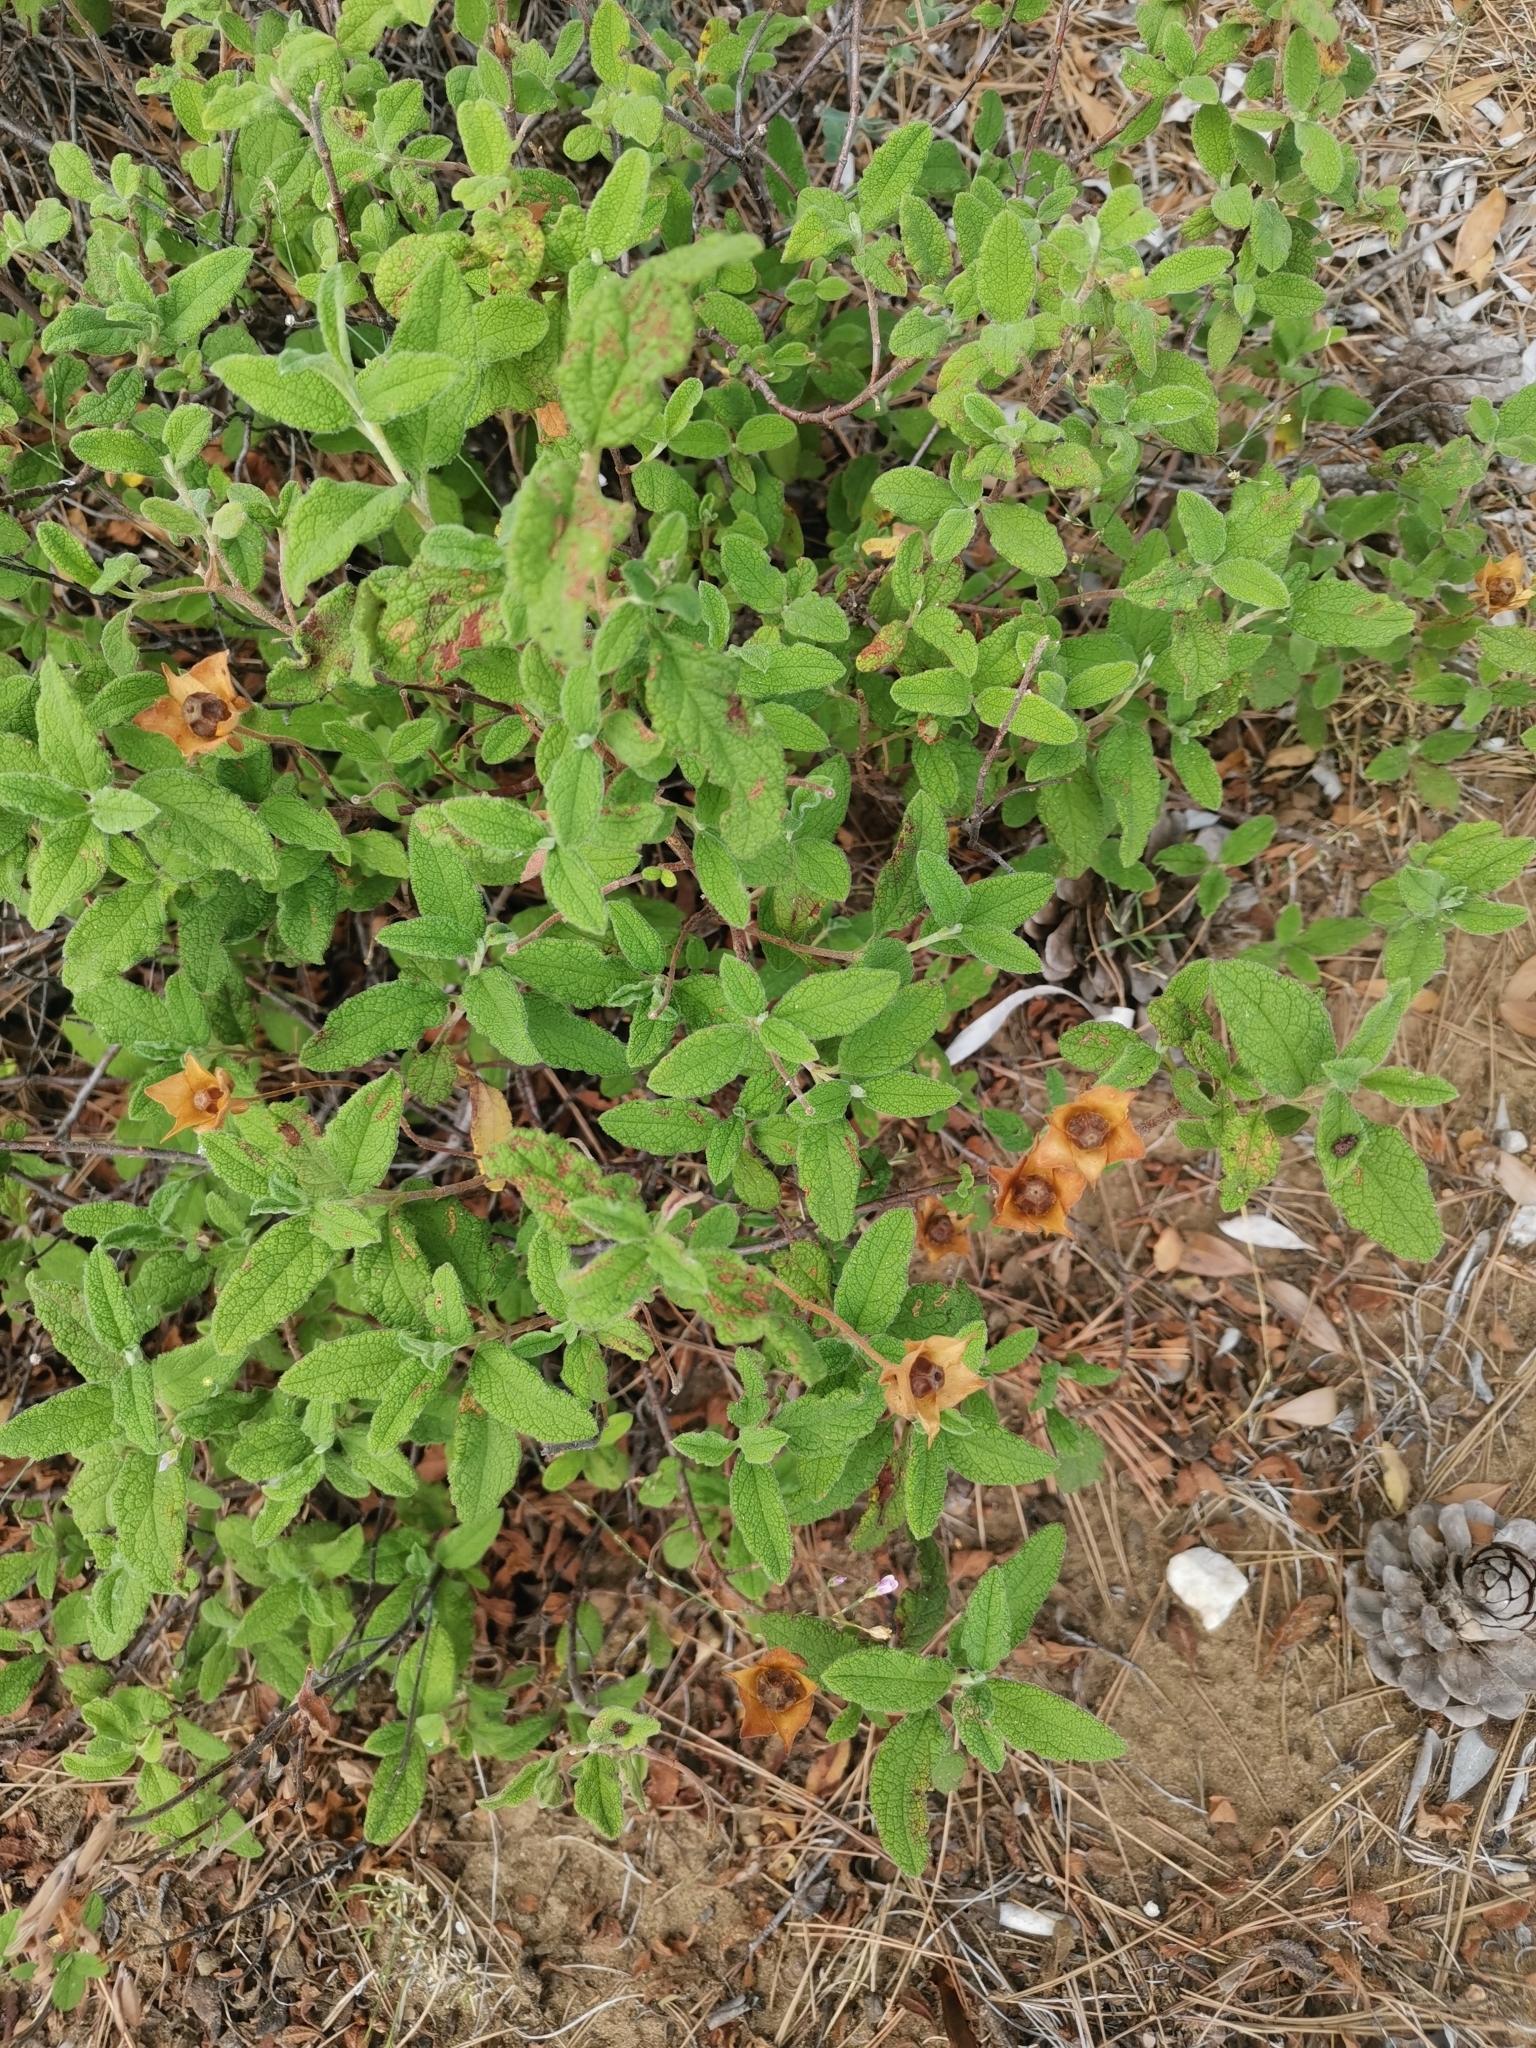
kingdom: Plantae
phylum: Tracheophyta
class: Magnoliopsida
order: Malvales
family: Cistaceae
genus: Cistus
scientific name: Cistus salviifolius
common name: Salvia cistus
